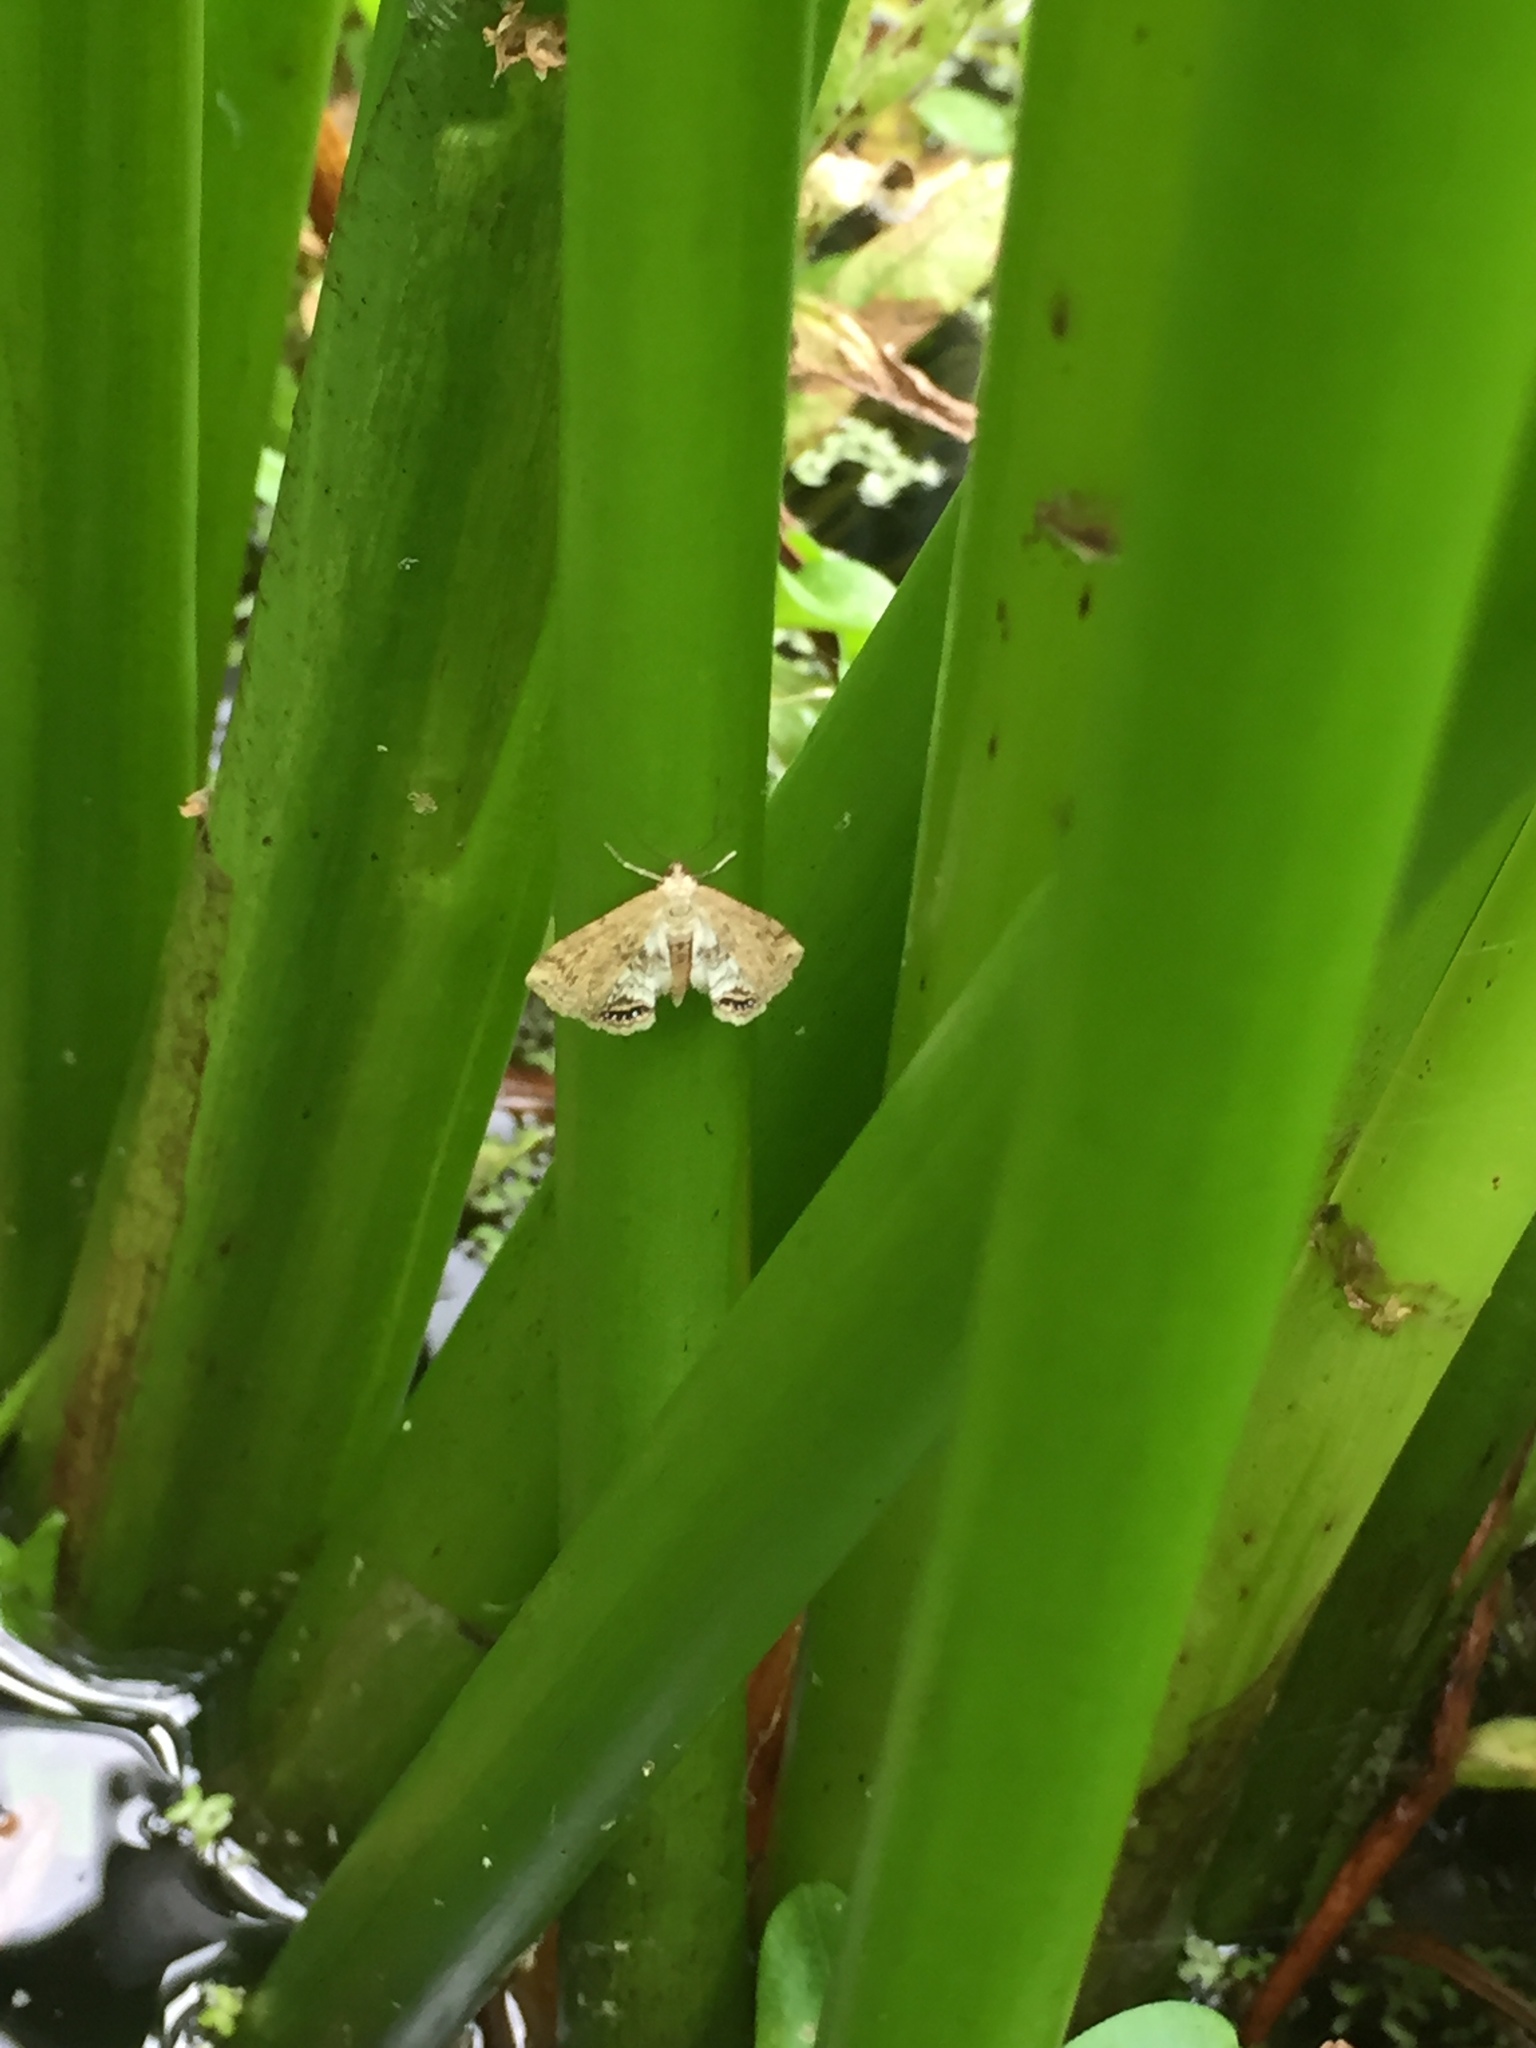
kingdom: Animalia
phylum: Arthropoda
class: Insecta
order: Lepidoptera
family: Crambidae
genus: Cataclysta
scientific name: Cataclysta lemnata
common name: Small china-mark
